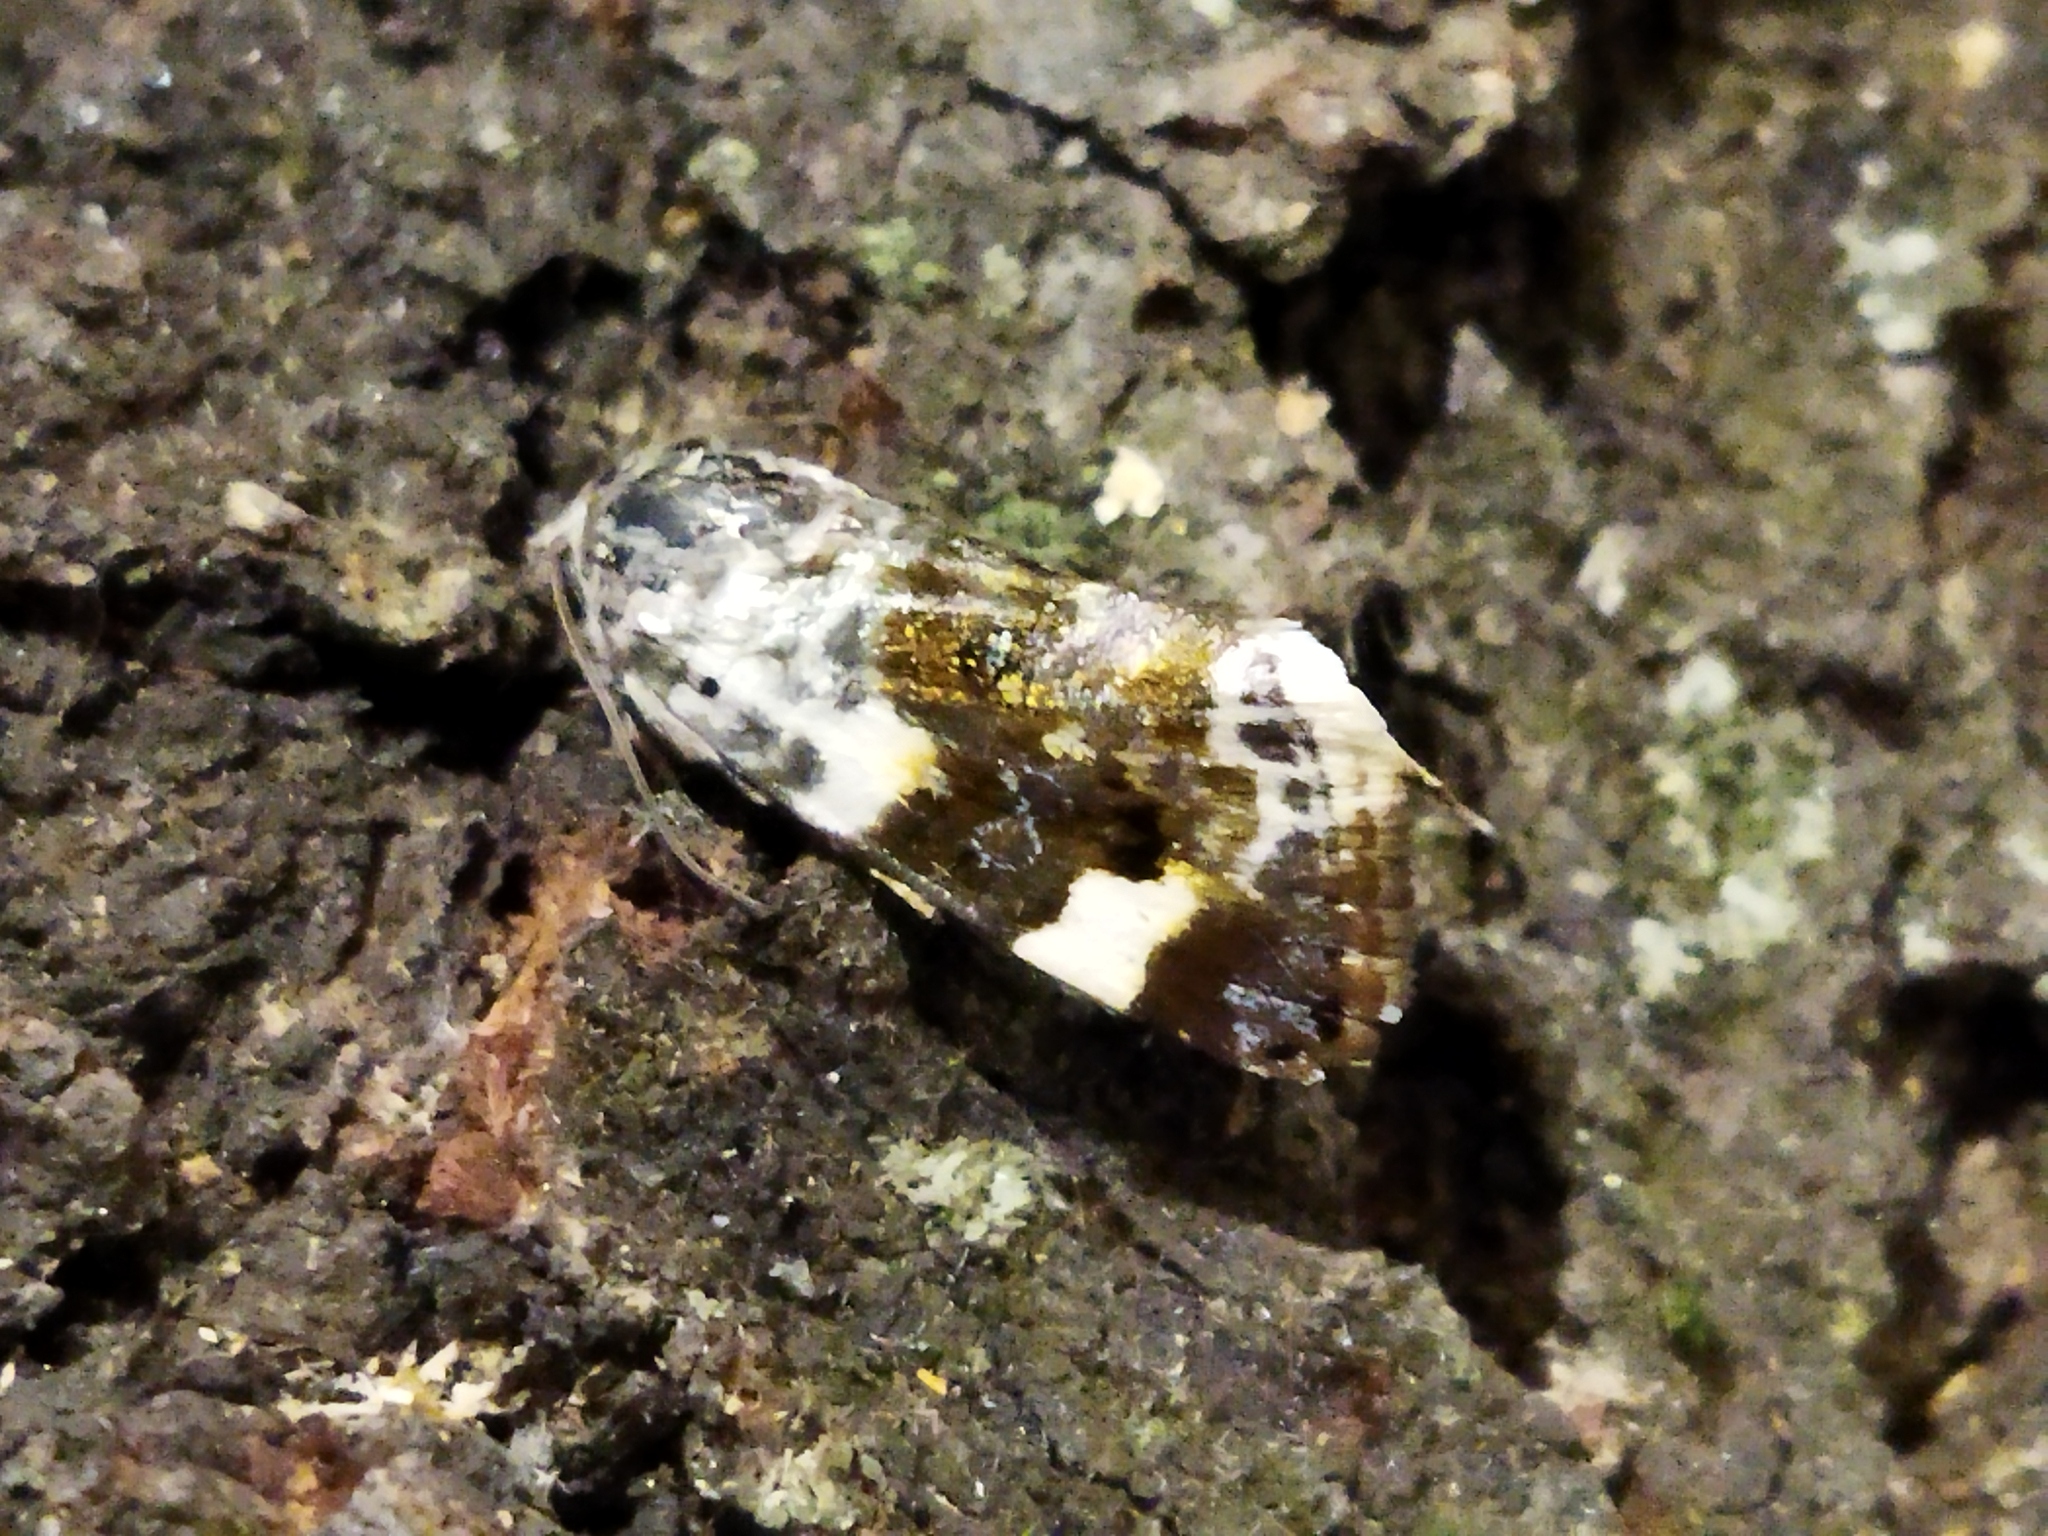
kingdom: Animalia
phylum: Arthropoda
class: Insecta
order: Lepidoptera
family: Noctuidae
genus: Acontia
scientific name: Acontia lucida
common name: Pale shoulder
